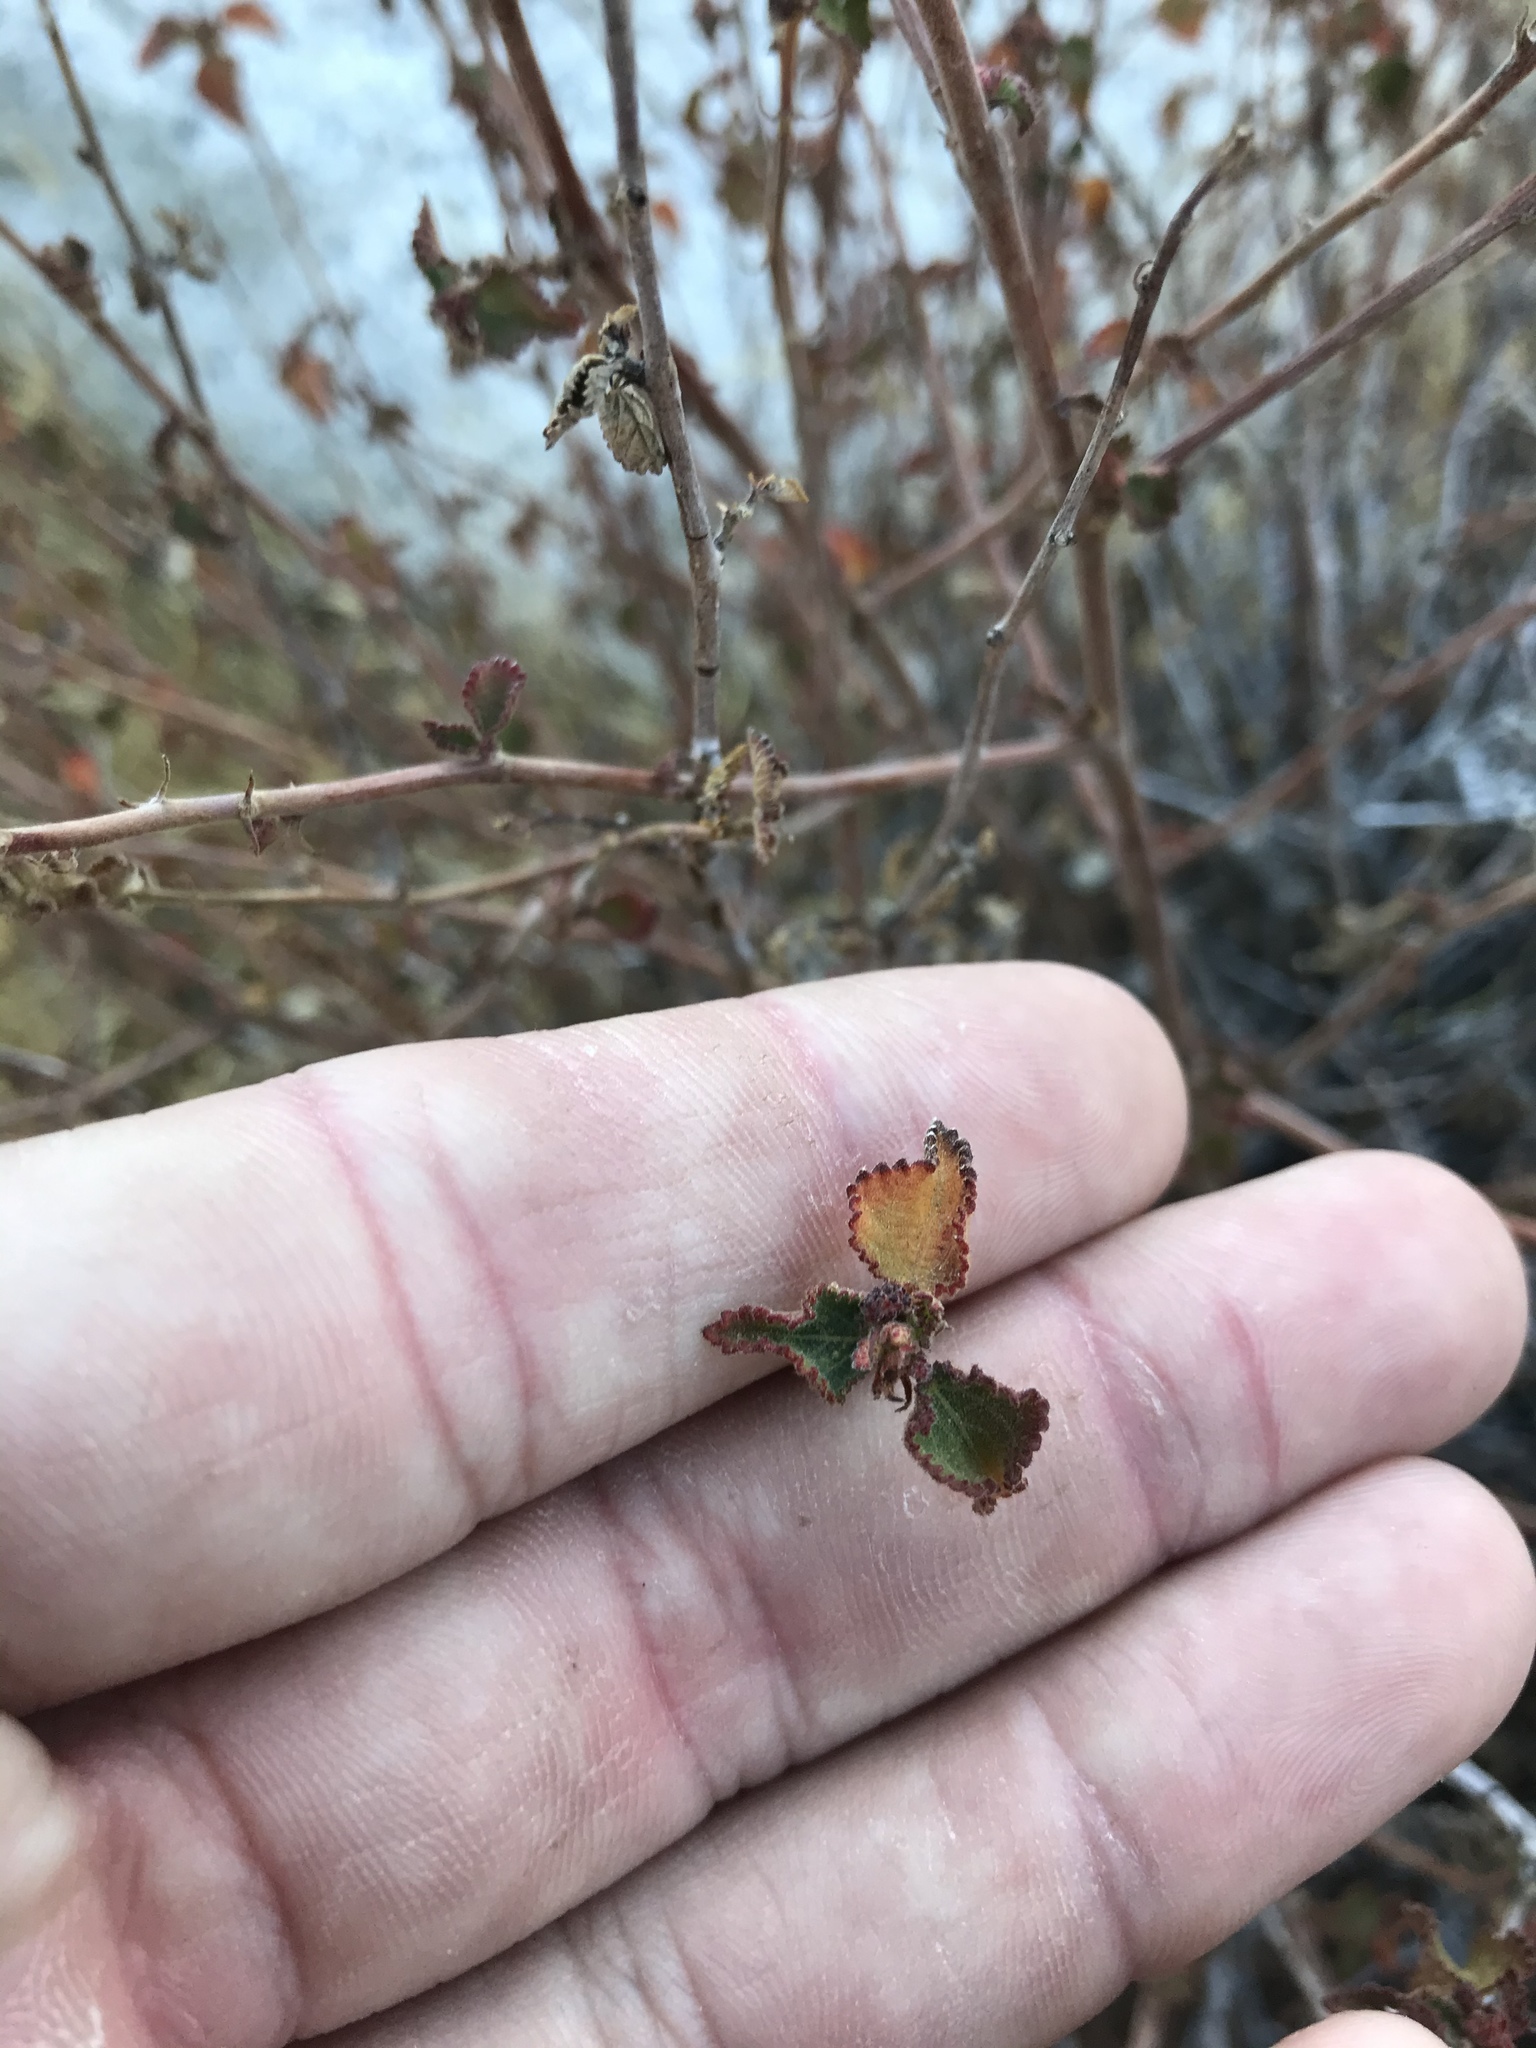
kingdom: Plantae
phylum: Tracheophyta
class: Magnoliopsida
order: Malpighiales
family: Euphorbiaceae
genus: Acalypha
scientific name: Acalypha californica
